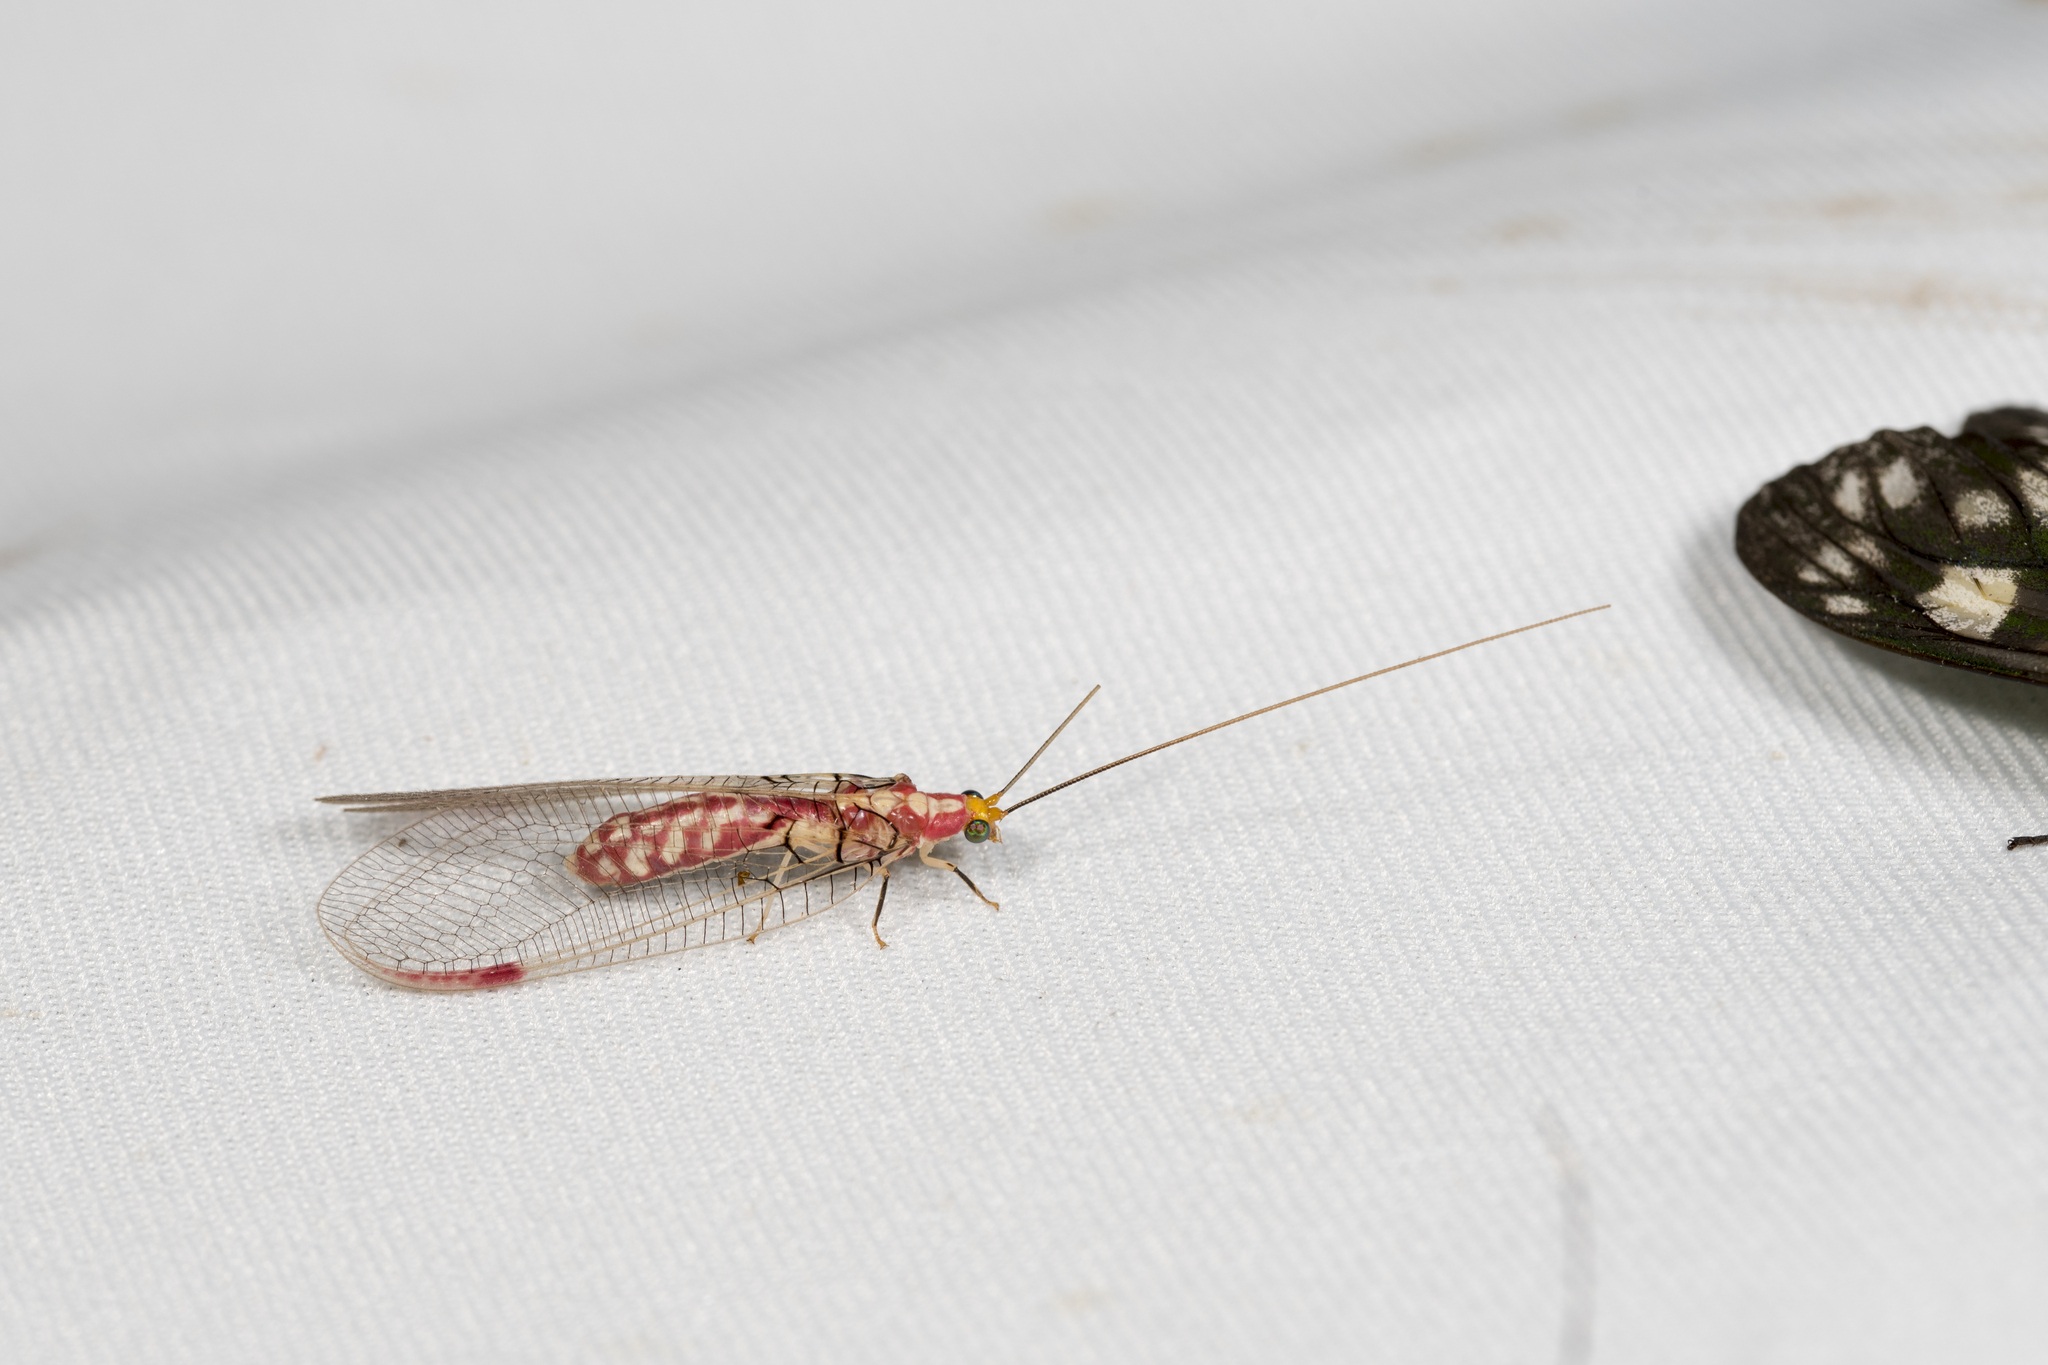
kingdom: Animalia
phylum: Arthropoda
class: Insecta
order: Neuroptera
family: Chrysopidae
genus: Italochrysa
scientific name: Italochrysa uchidae
